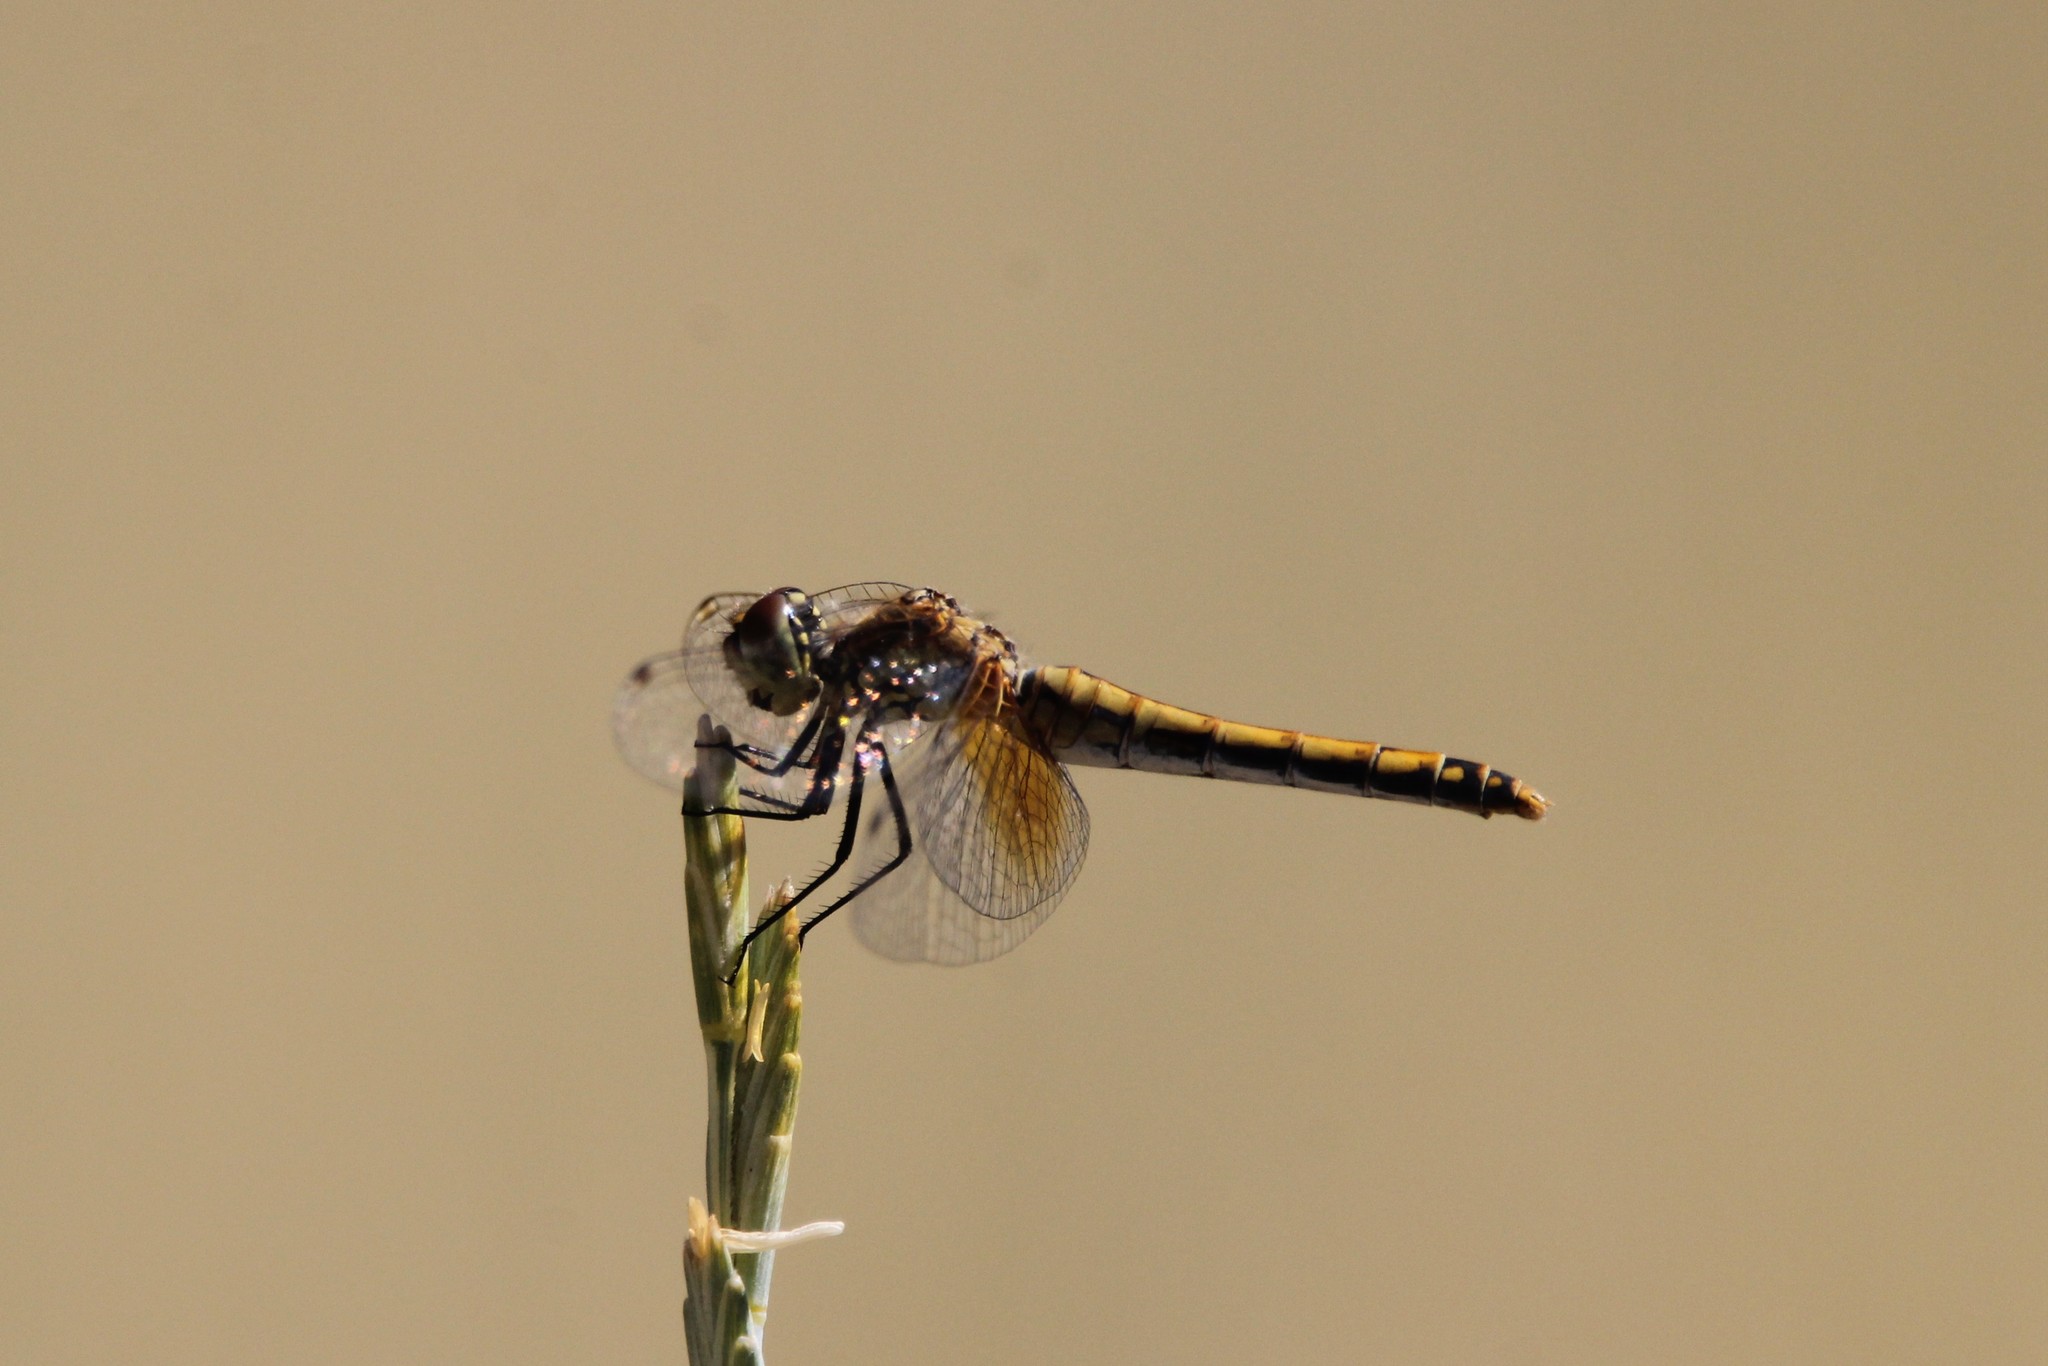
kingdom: Animalia
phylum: Arthropoda
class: Insecta
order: Odonata
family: Libellulidae
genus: Sympetrum
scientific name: Sympetrum semicinctum
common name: Band-winged meadowhawk
